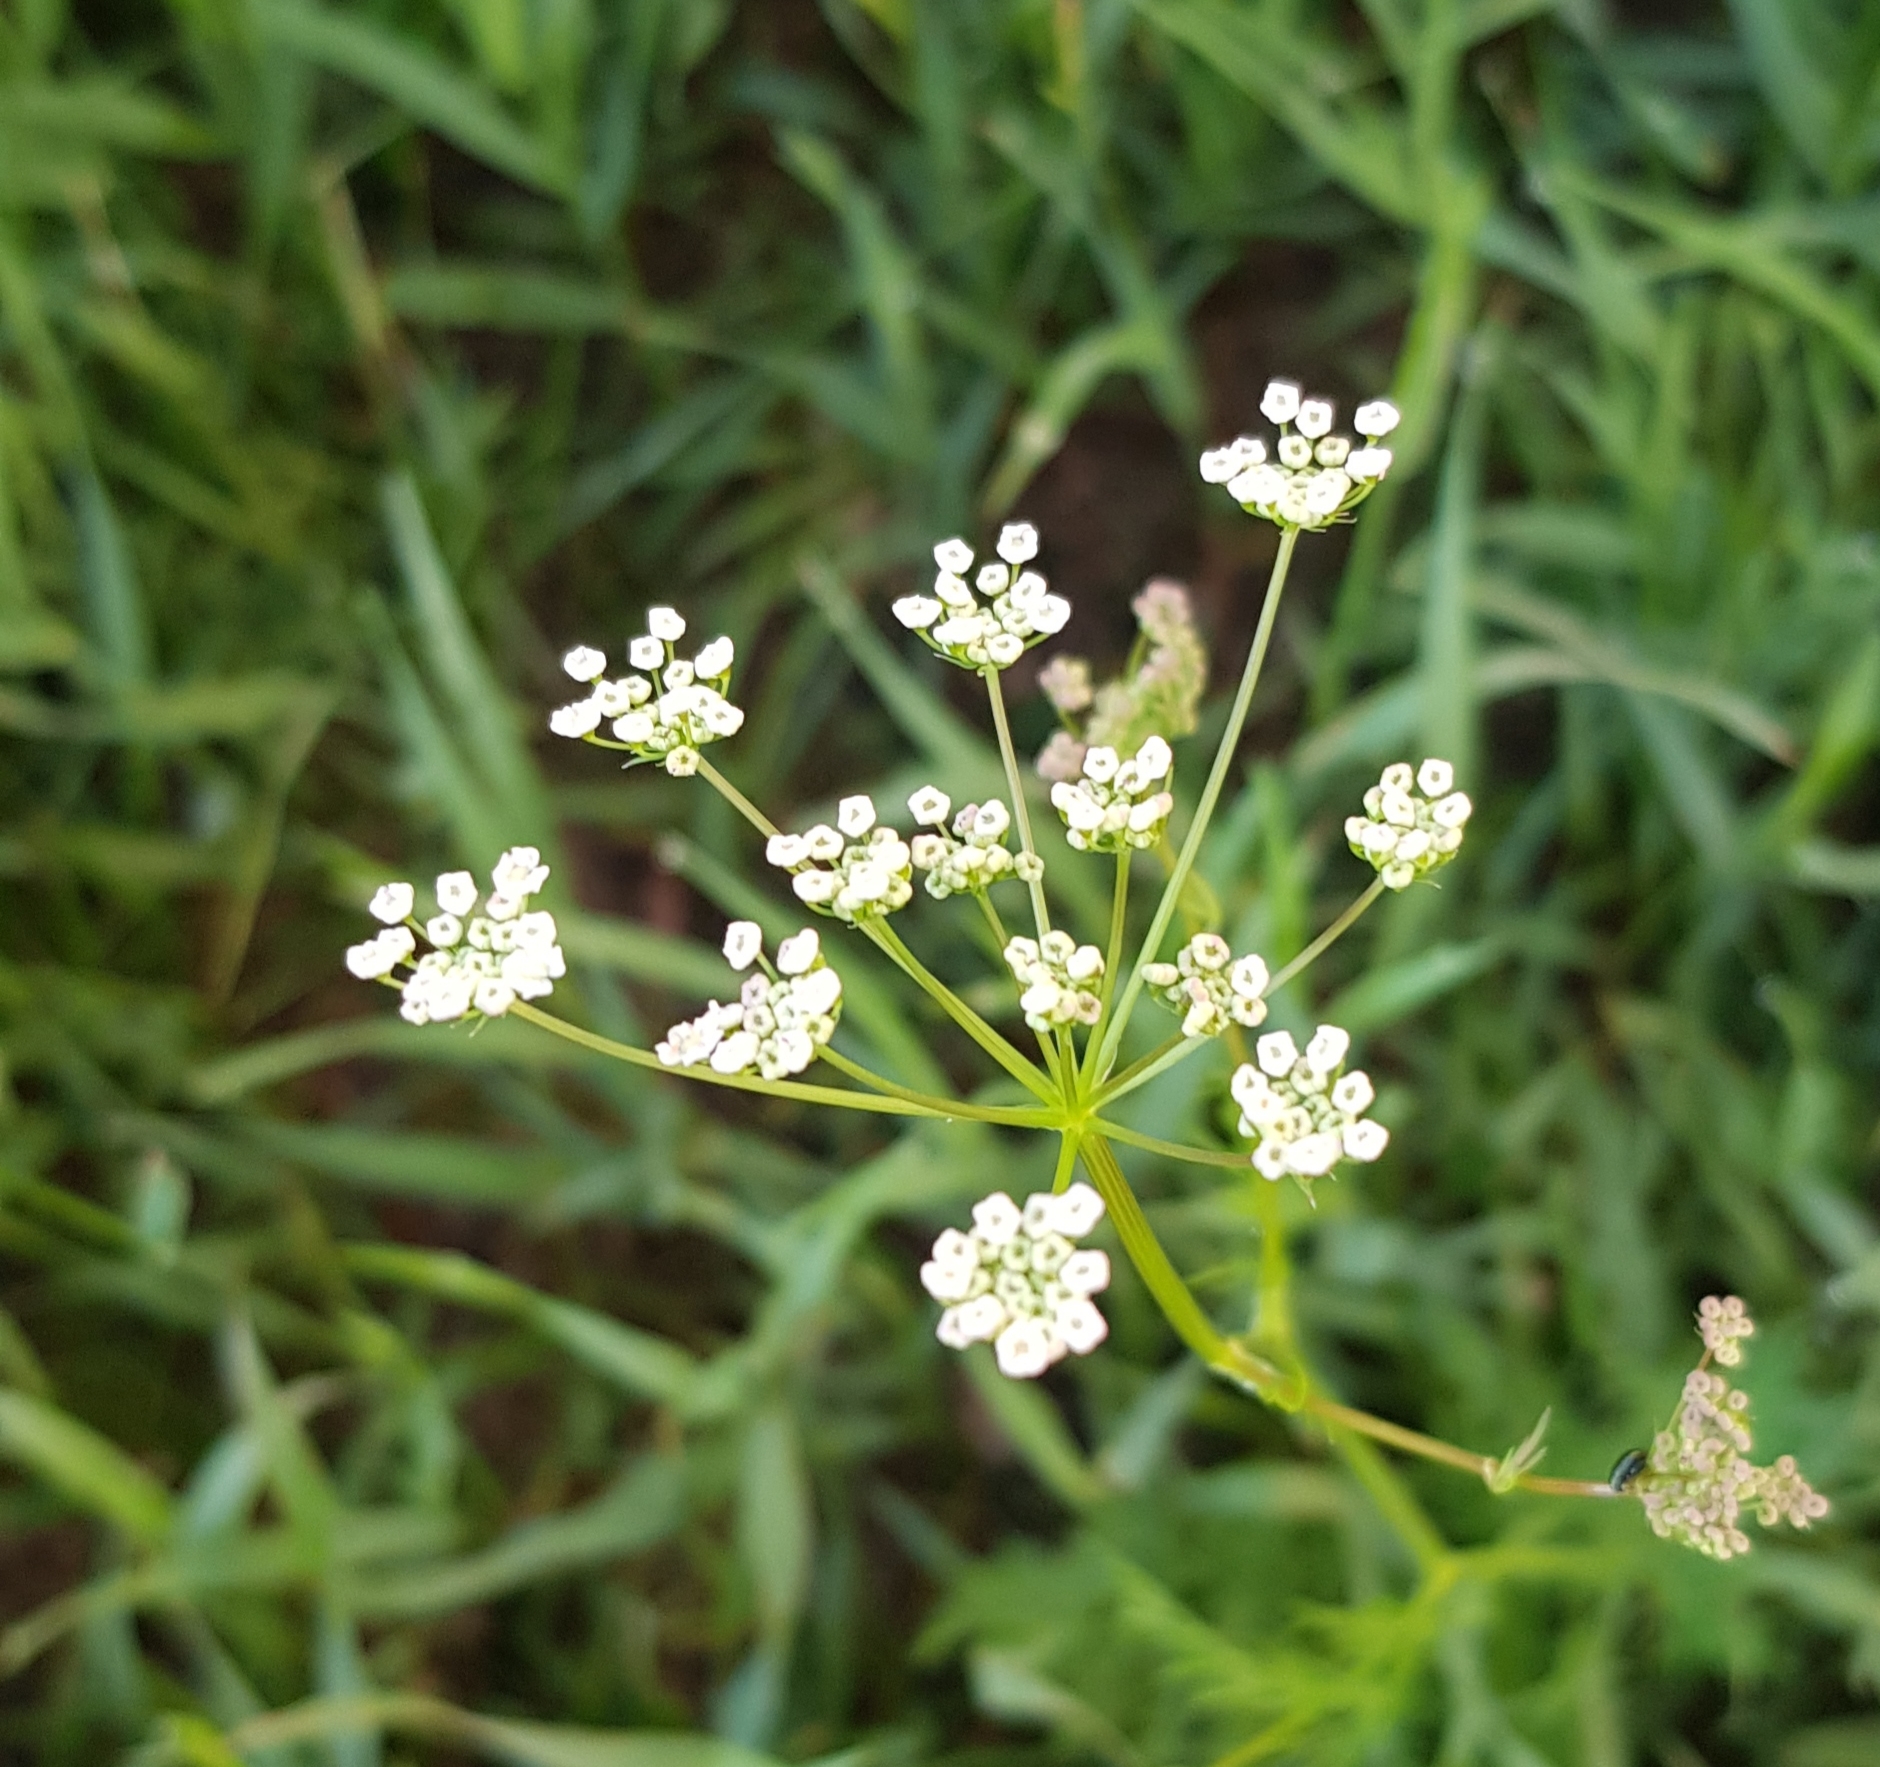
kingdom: Plantae
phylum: Tracheophyta
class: Magnoliopsida
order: Apiales
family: Apiaceae
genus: Carum
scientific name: Carum carvi
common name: Caraway
